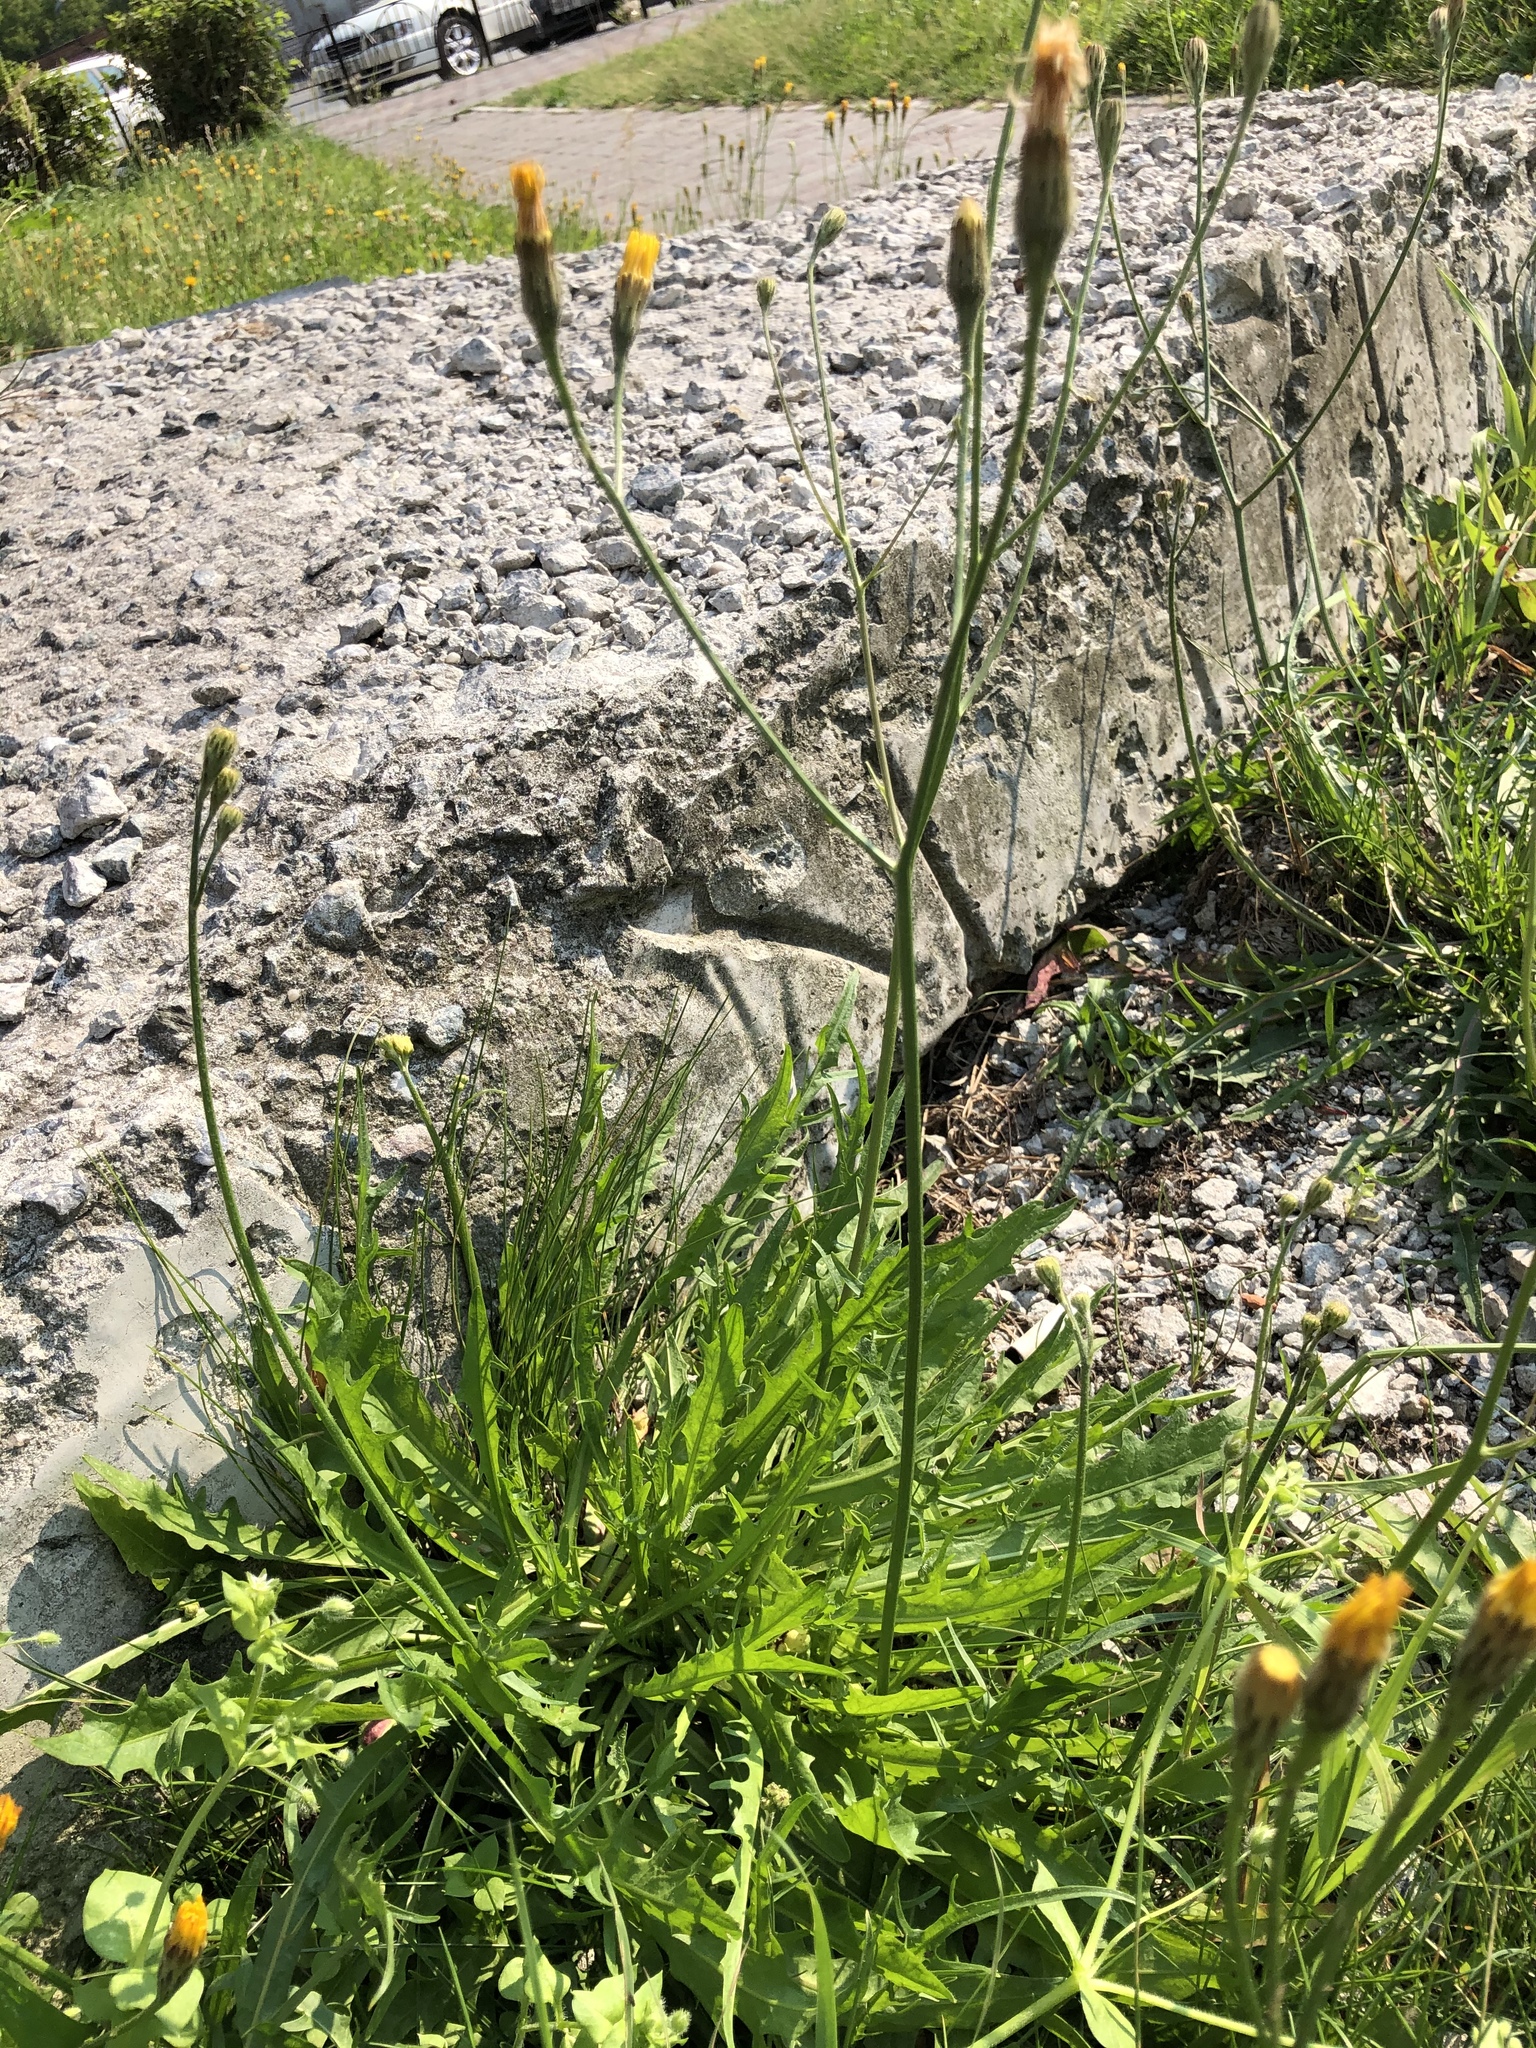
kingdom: Plantae
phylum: Tracheophyta
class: Magnoliopsida
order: Asterales
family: Asteraceae
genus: Scorzoneroides
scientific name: Scorzoneroides autumnalis
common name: Autumn hawkbit
